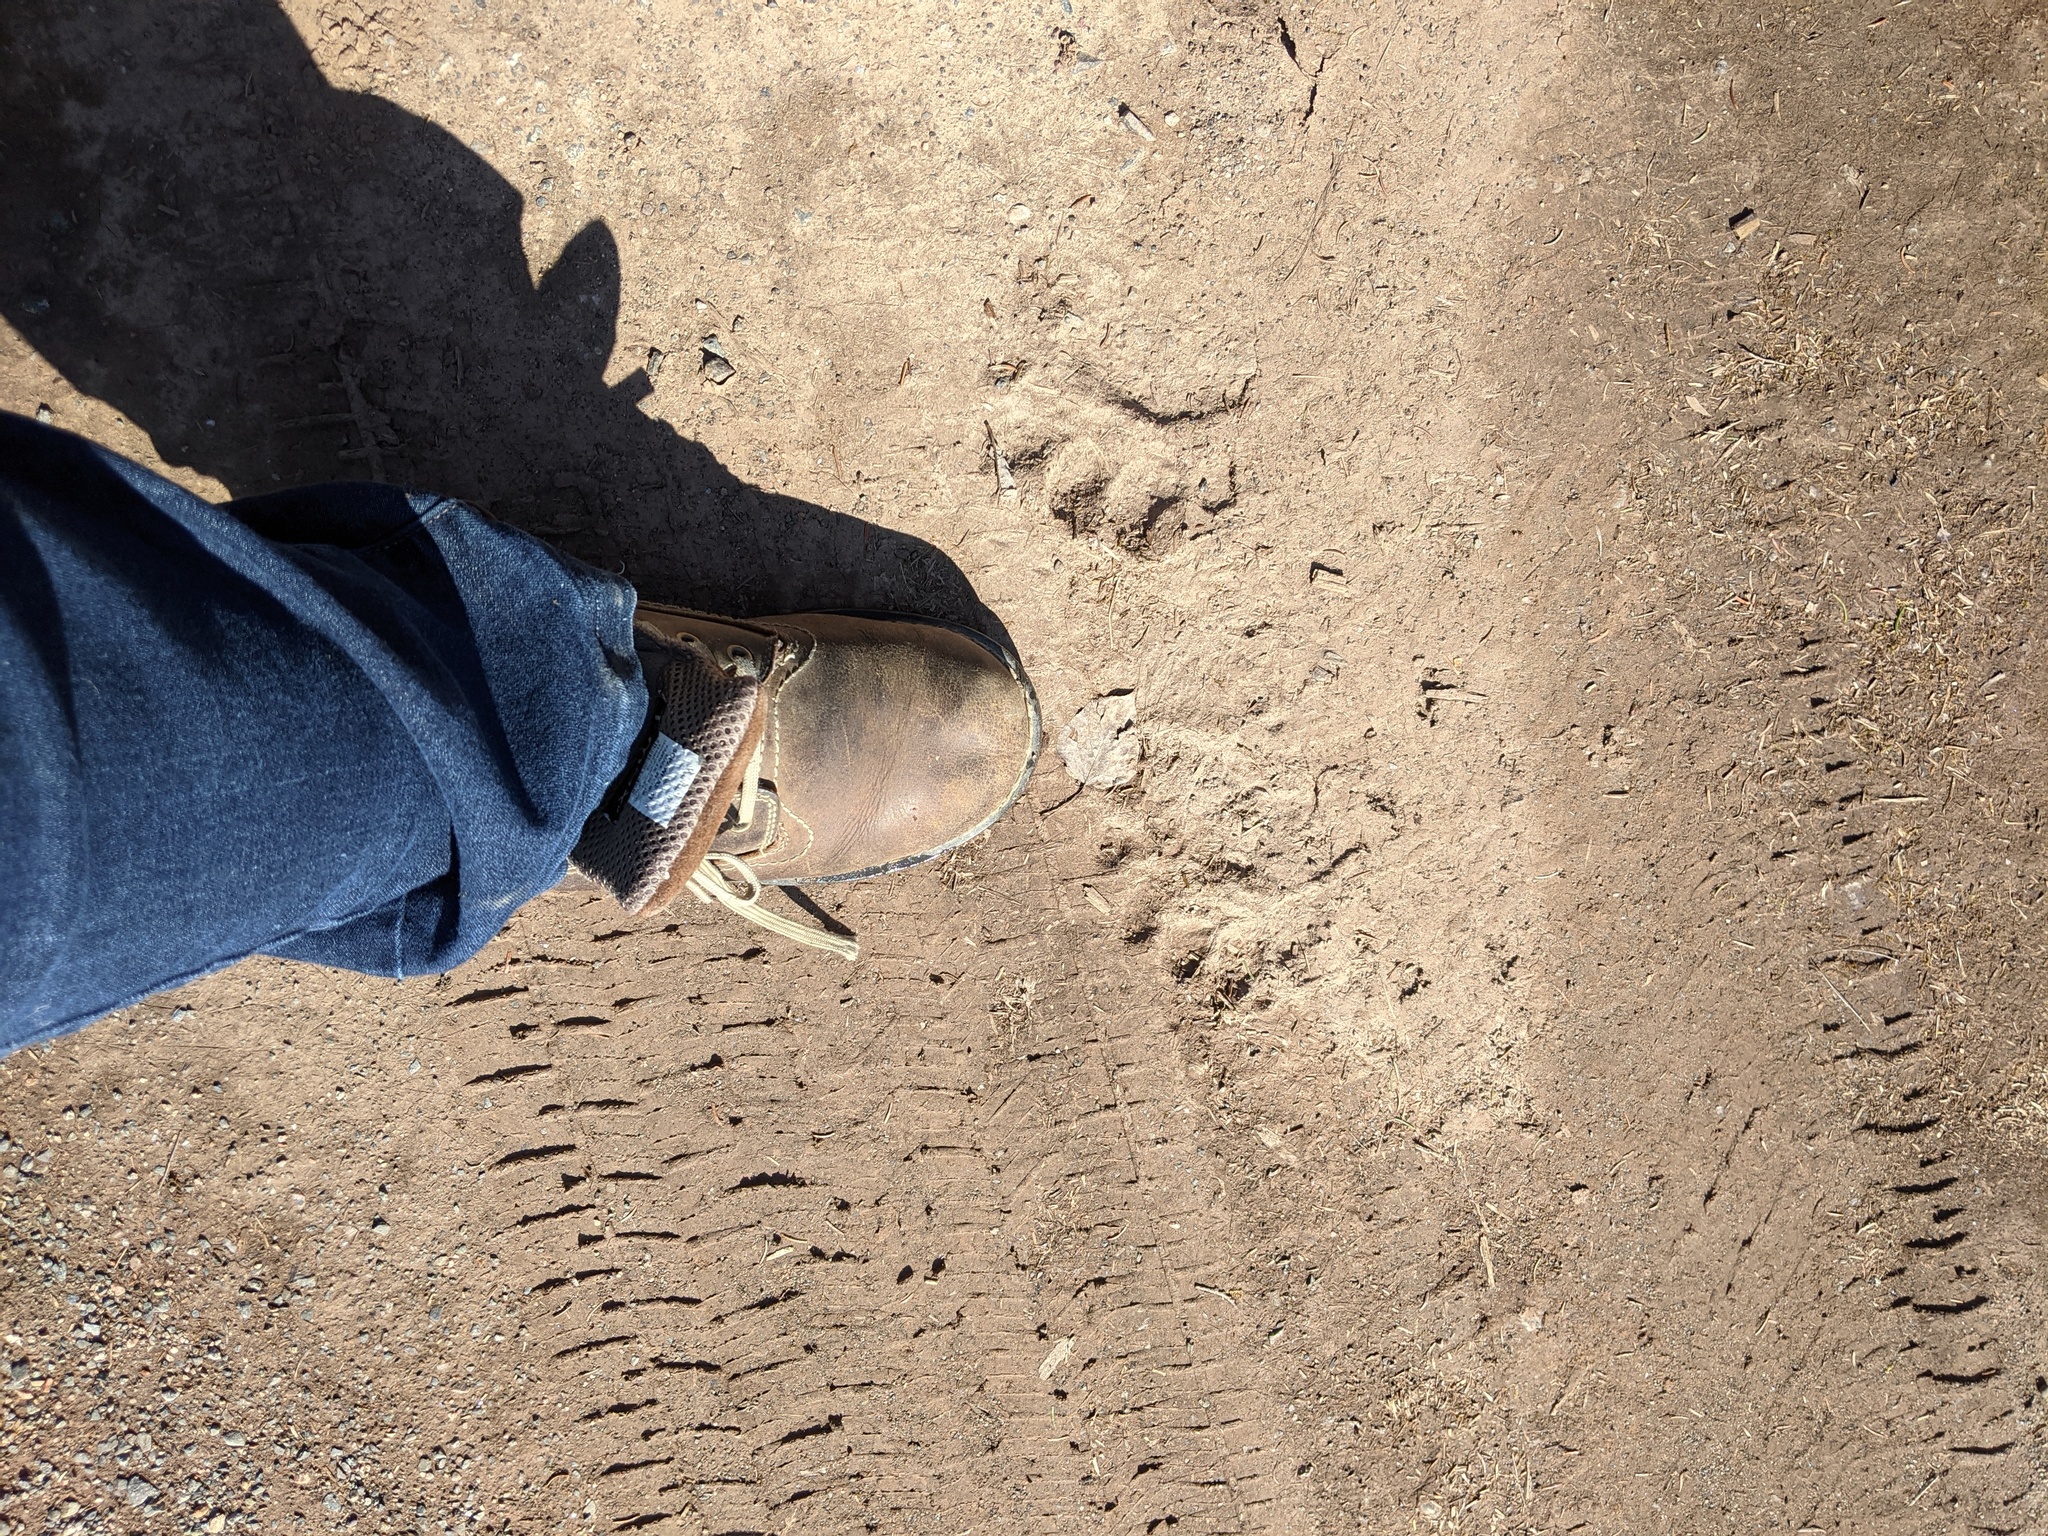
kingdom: Animalia
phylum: Chordata
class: Mammalia
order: Carnivora
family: Ursidae
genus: Ursus
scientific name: Ursus americanus
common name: American black bear
